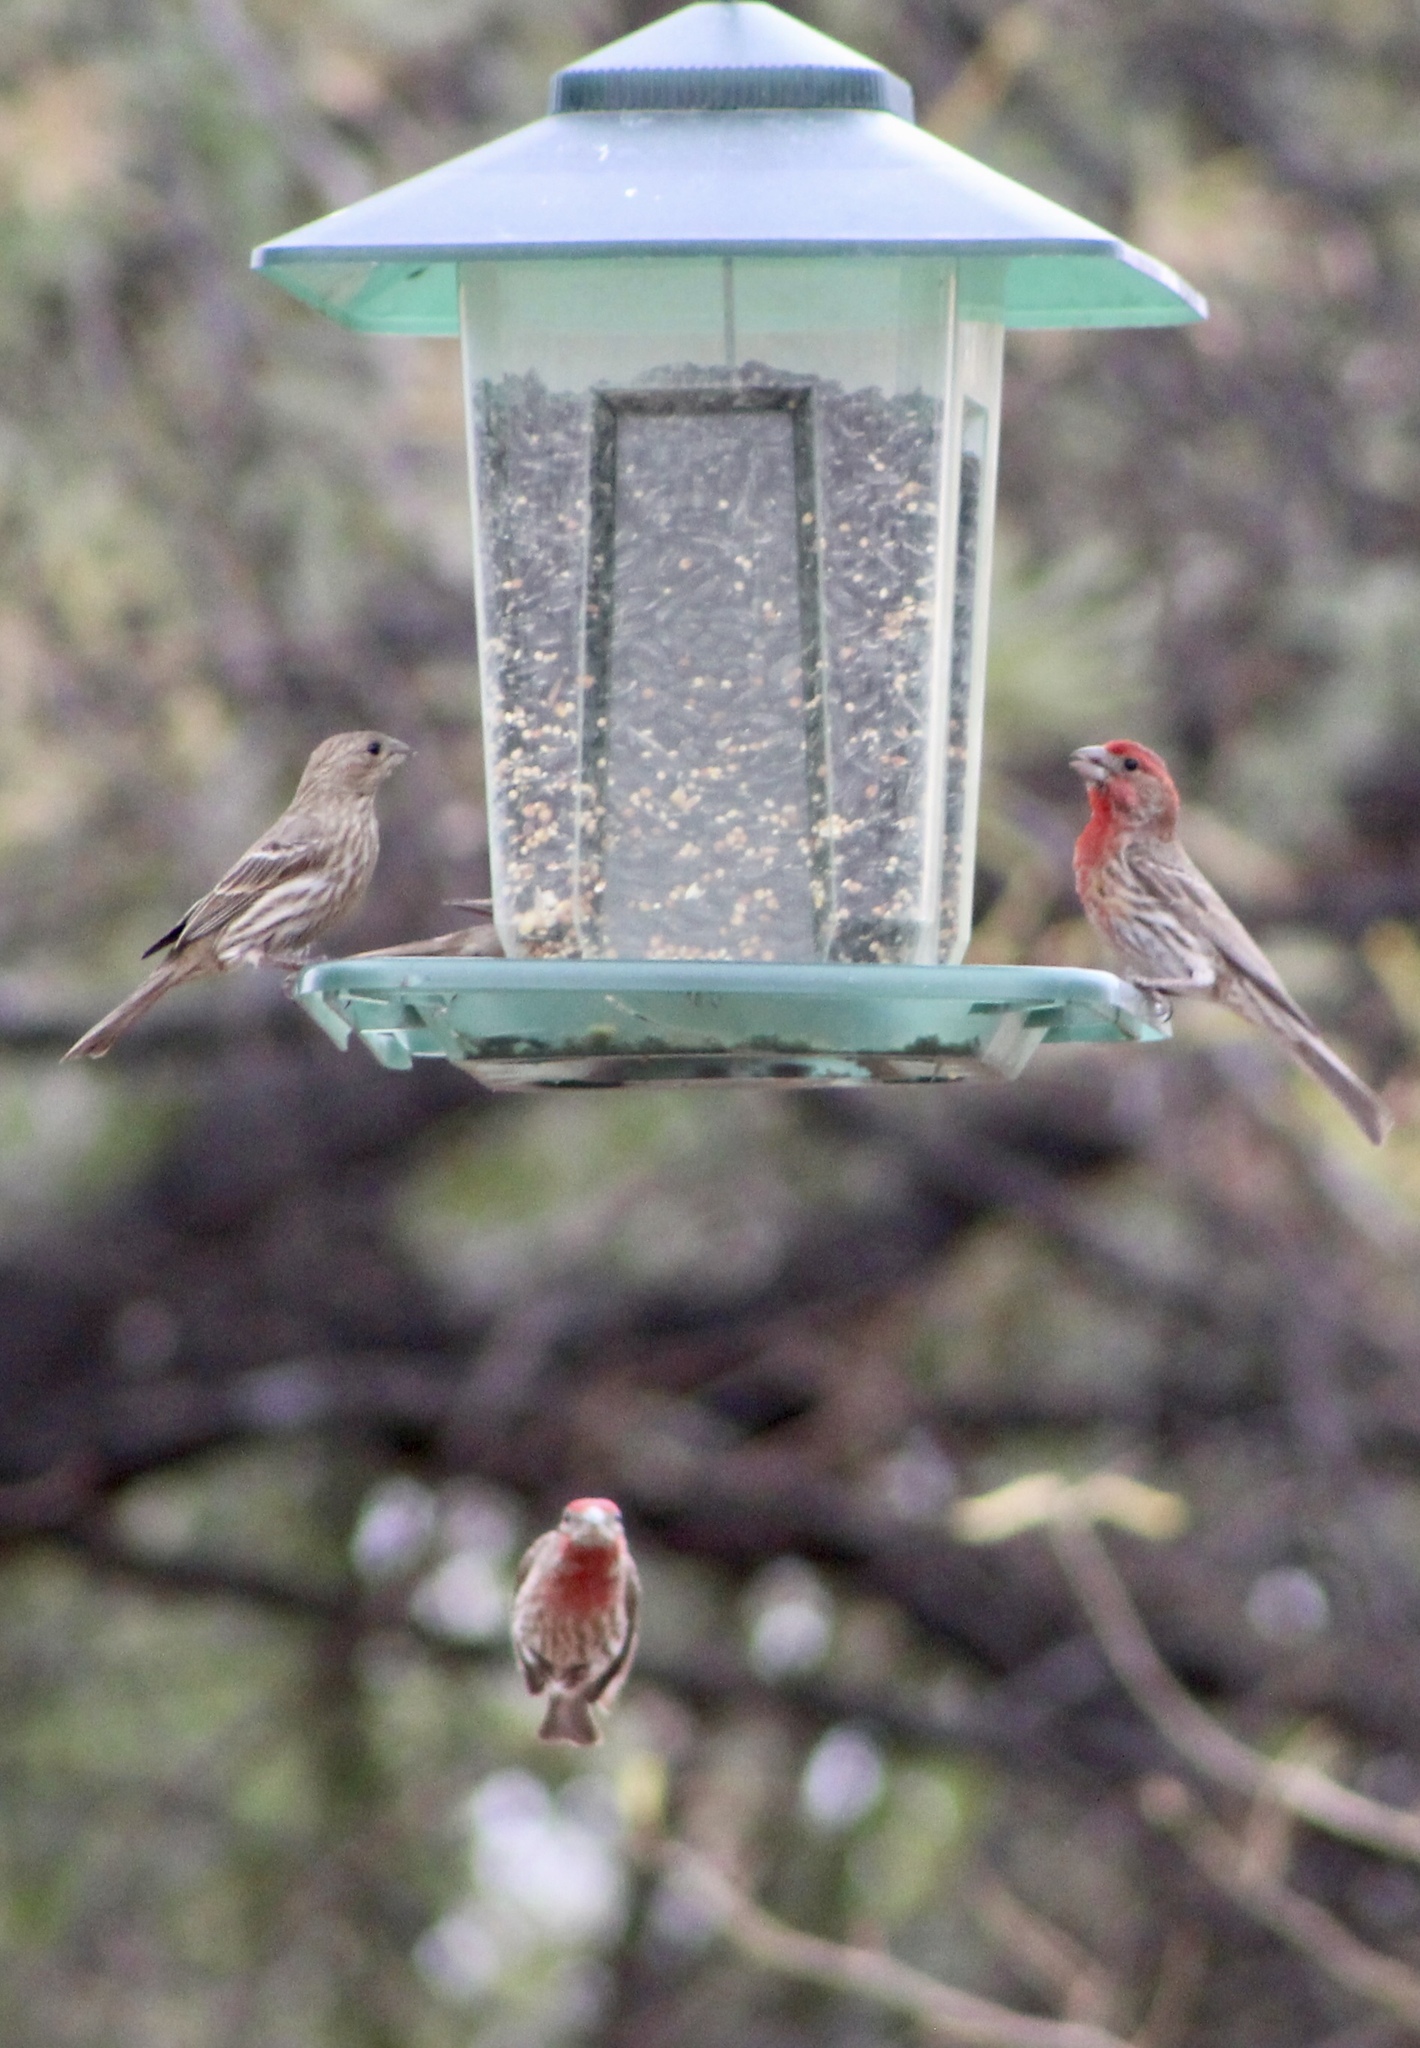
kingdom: Animalia
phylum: Chordata
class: Aves
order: Passeriformes
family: Fringillidae
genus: Haemorhous
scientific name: Haemorhous mexicanus
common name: House finch
